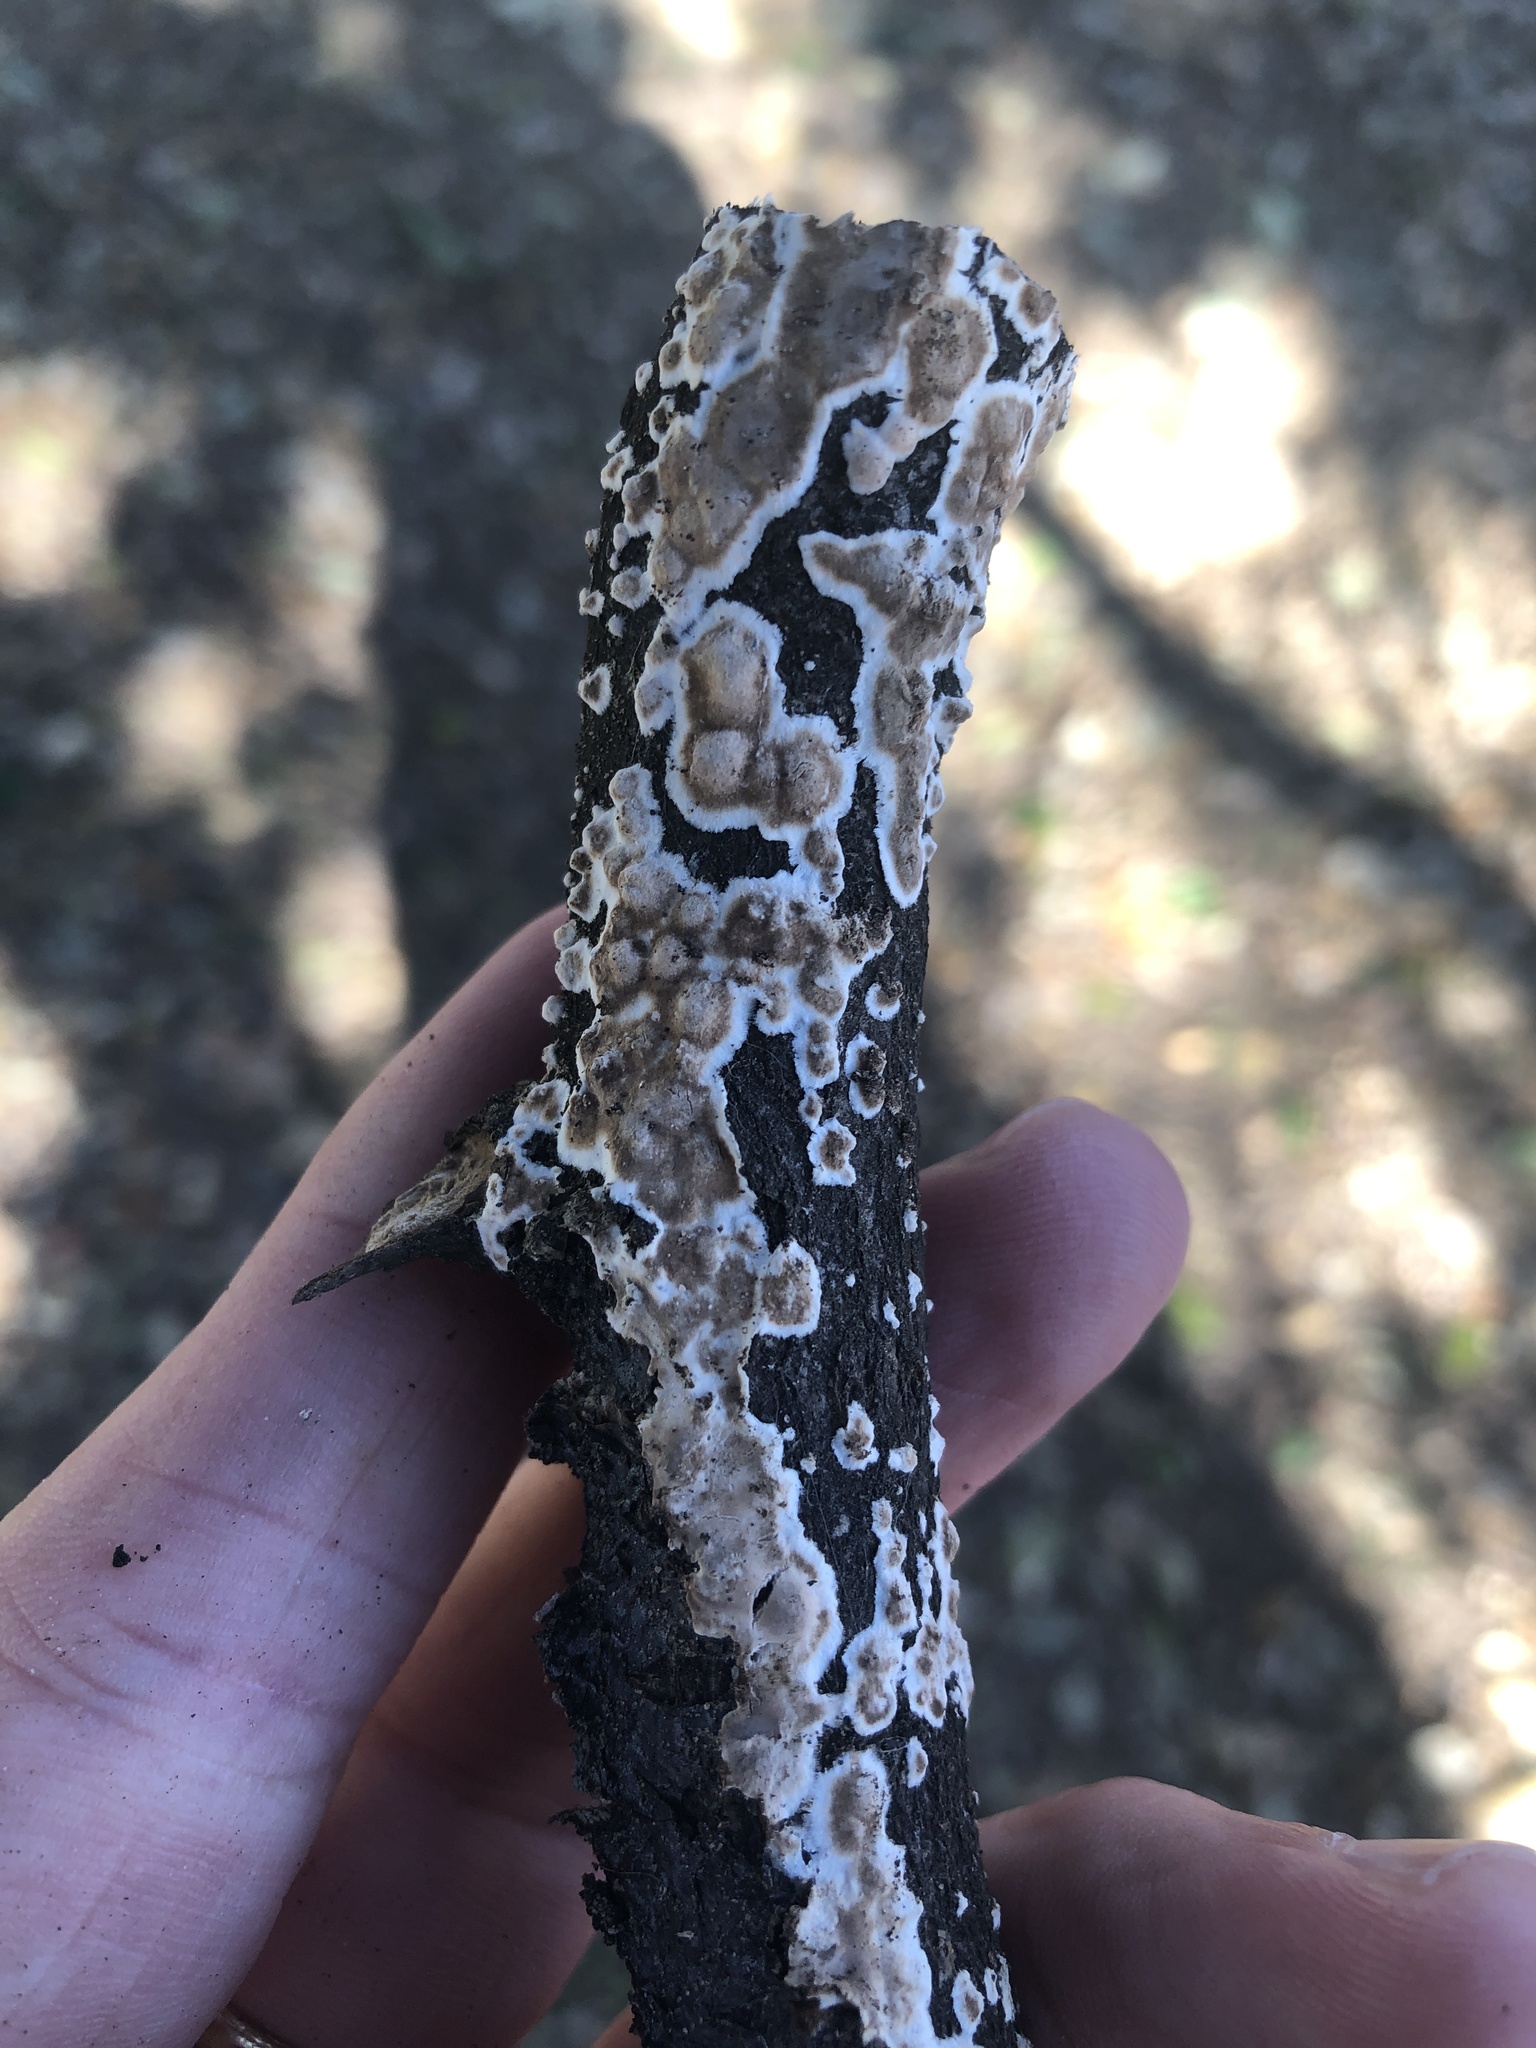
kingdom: Fungi
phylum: Basidiomycota
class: Agaricomycetes
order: Russulales
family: Peniophoraceae
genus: Peniophora
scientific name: Peniophora albobadia
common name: Giraffe spots
